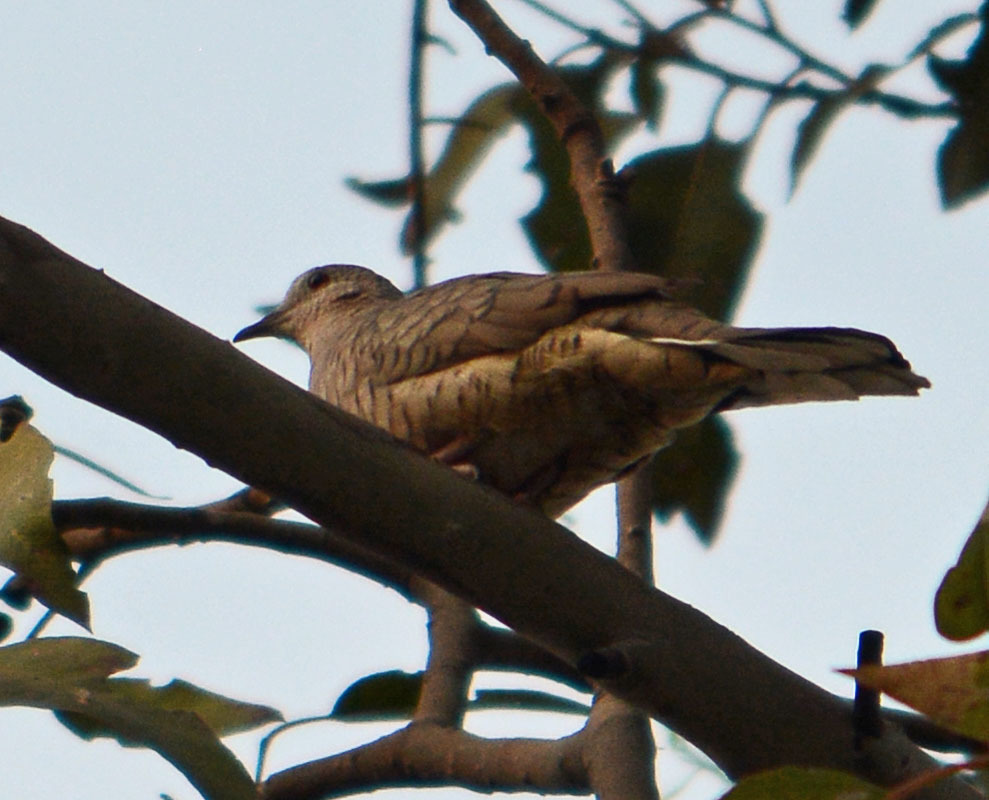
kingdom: Animalia
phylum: Chordata
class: Aves
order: Columbiformes
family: Columbidae
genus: Columbina
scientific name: Columbina inca
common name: Inca dove
